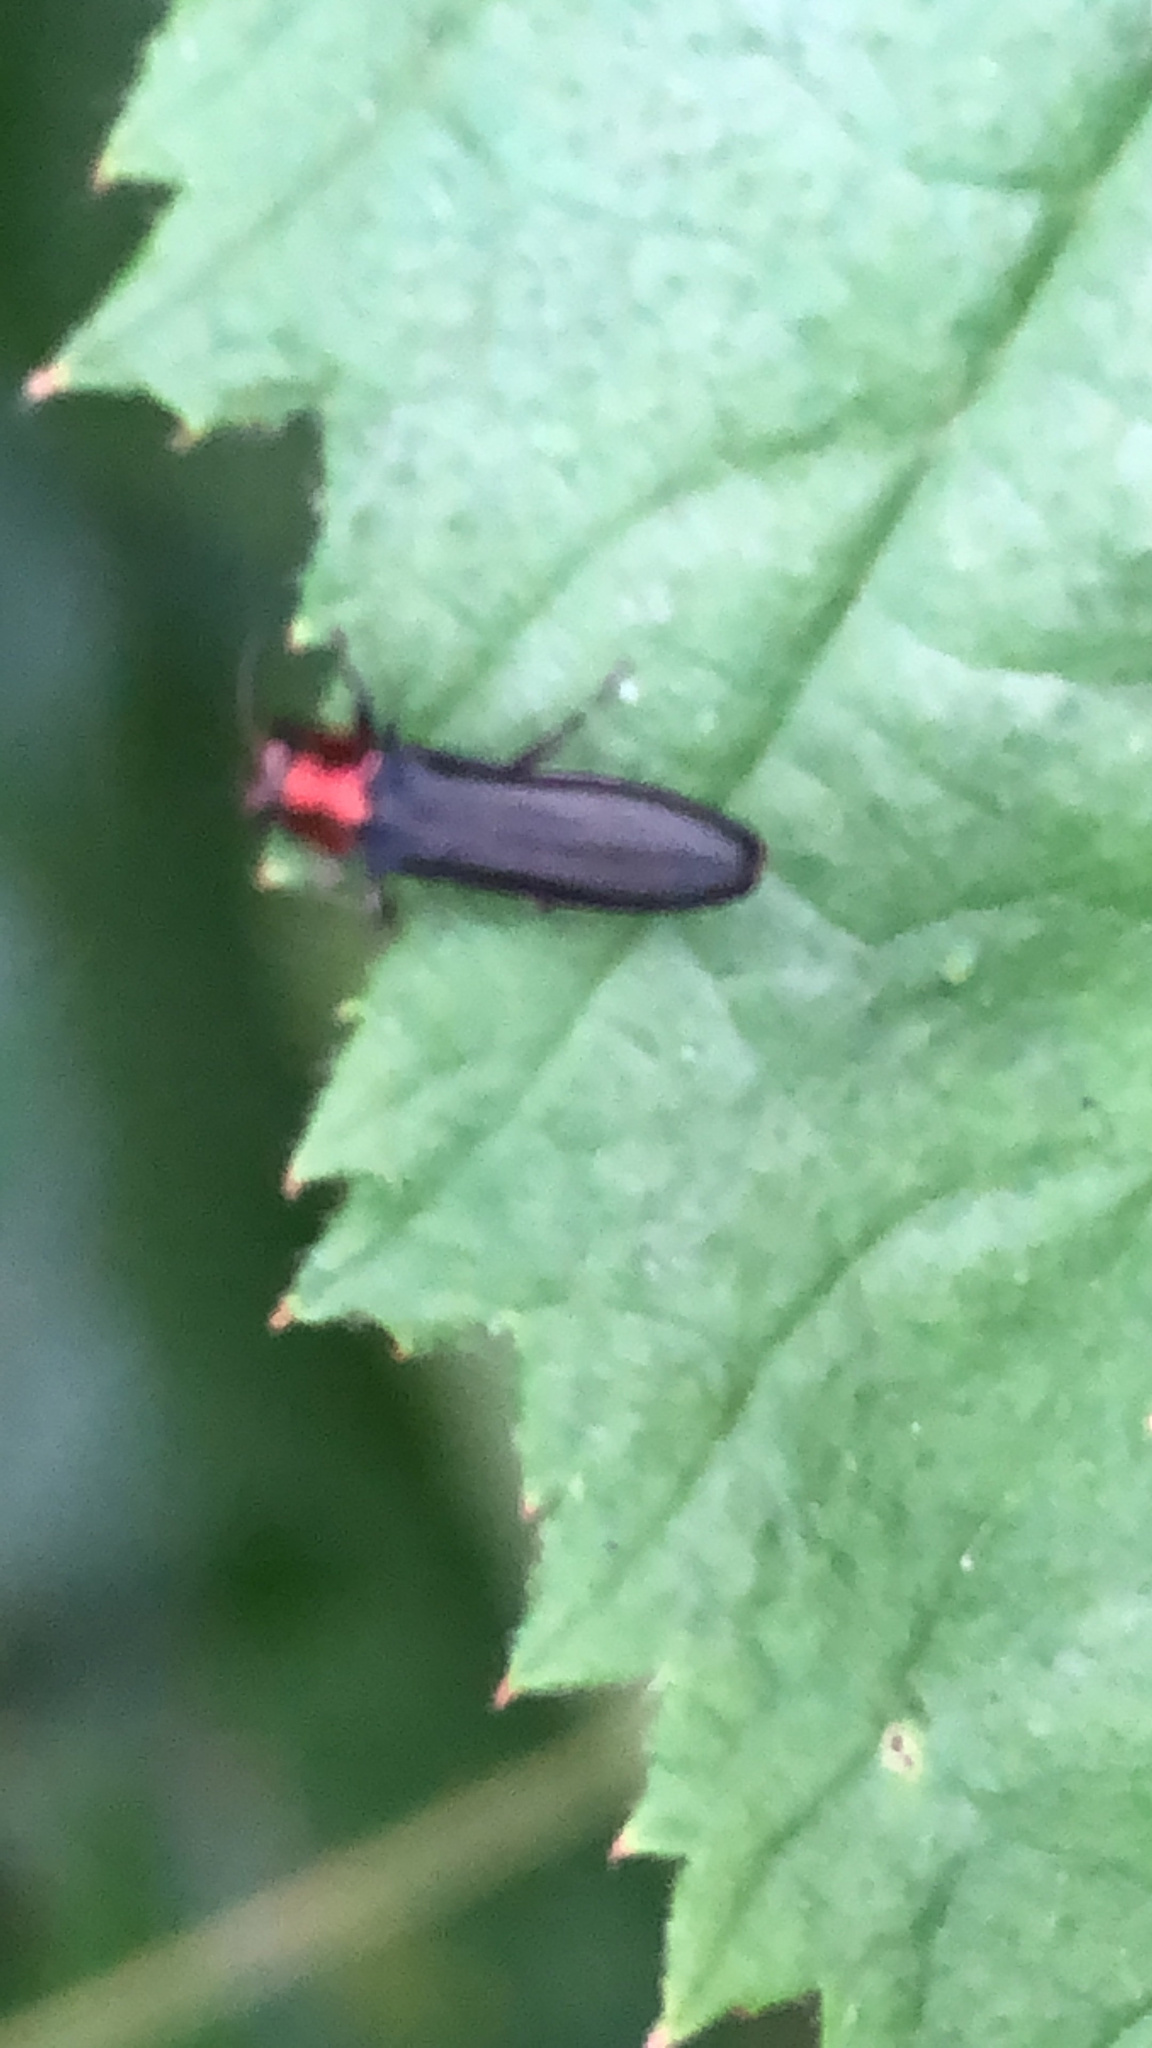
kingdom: Animalia
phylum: Arthropoda
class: Insecta
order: Coleoptera
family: Buprestidae
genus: Agrilus
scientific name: Agrilus ruficollis
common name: Red-necked cane borer beetle
